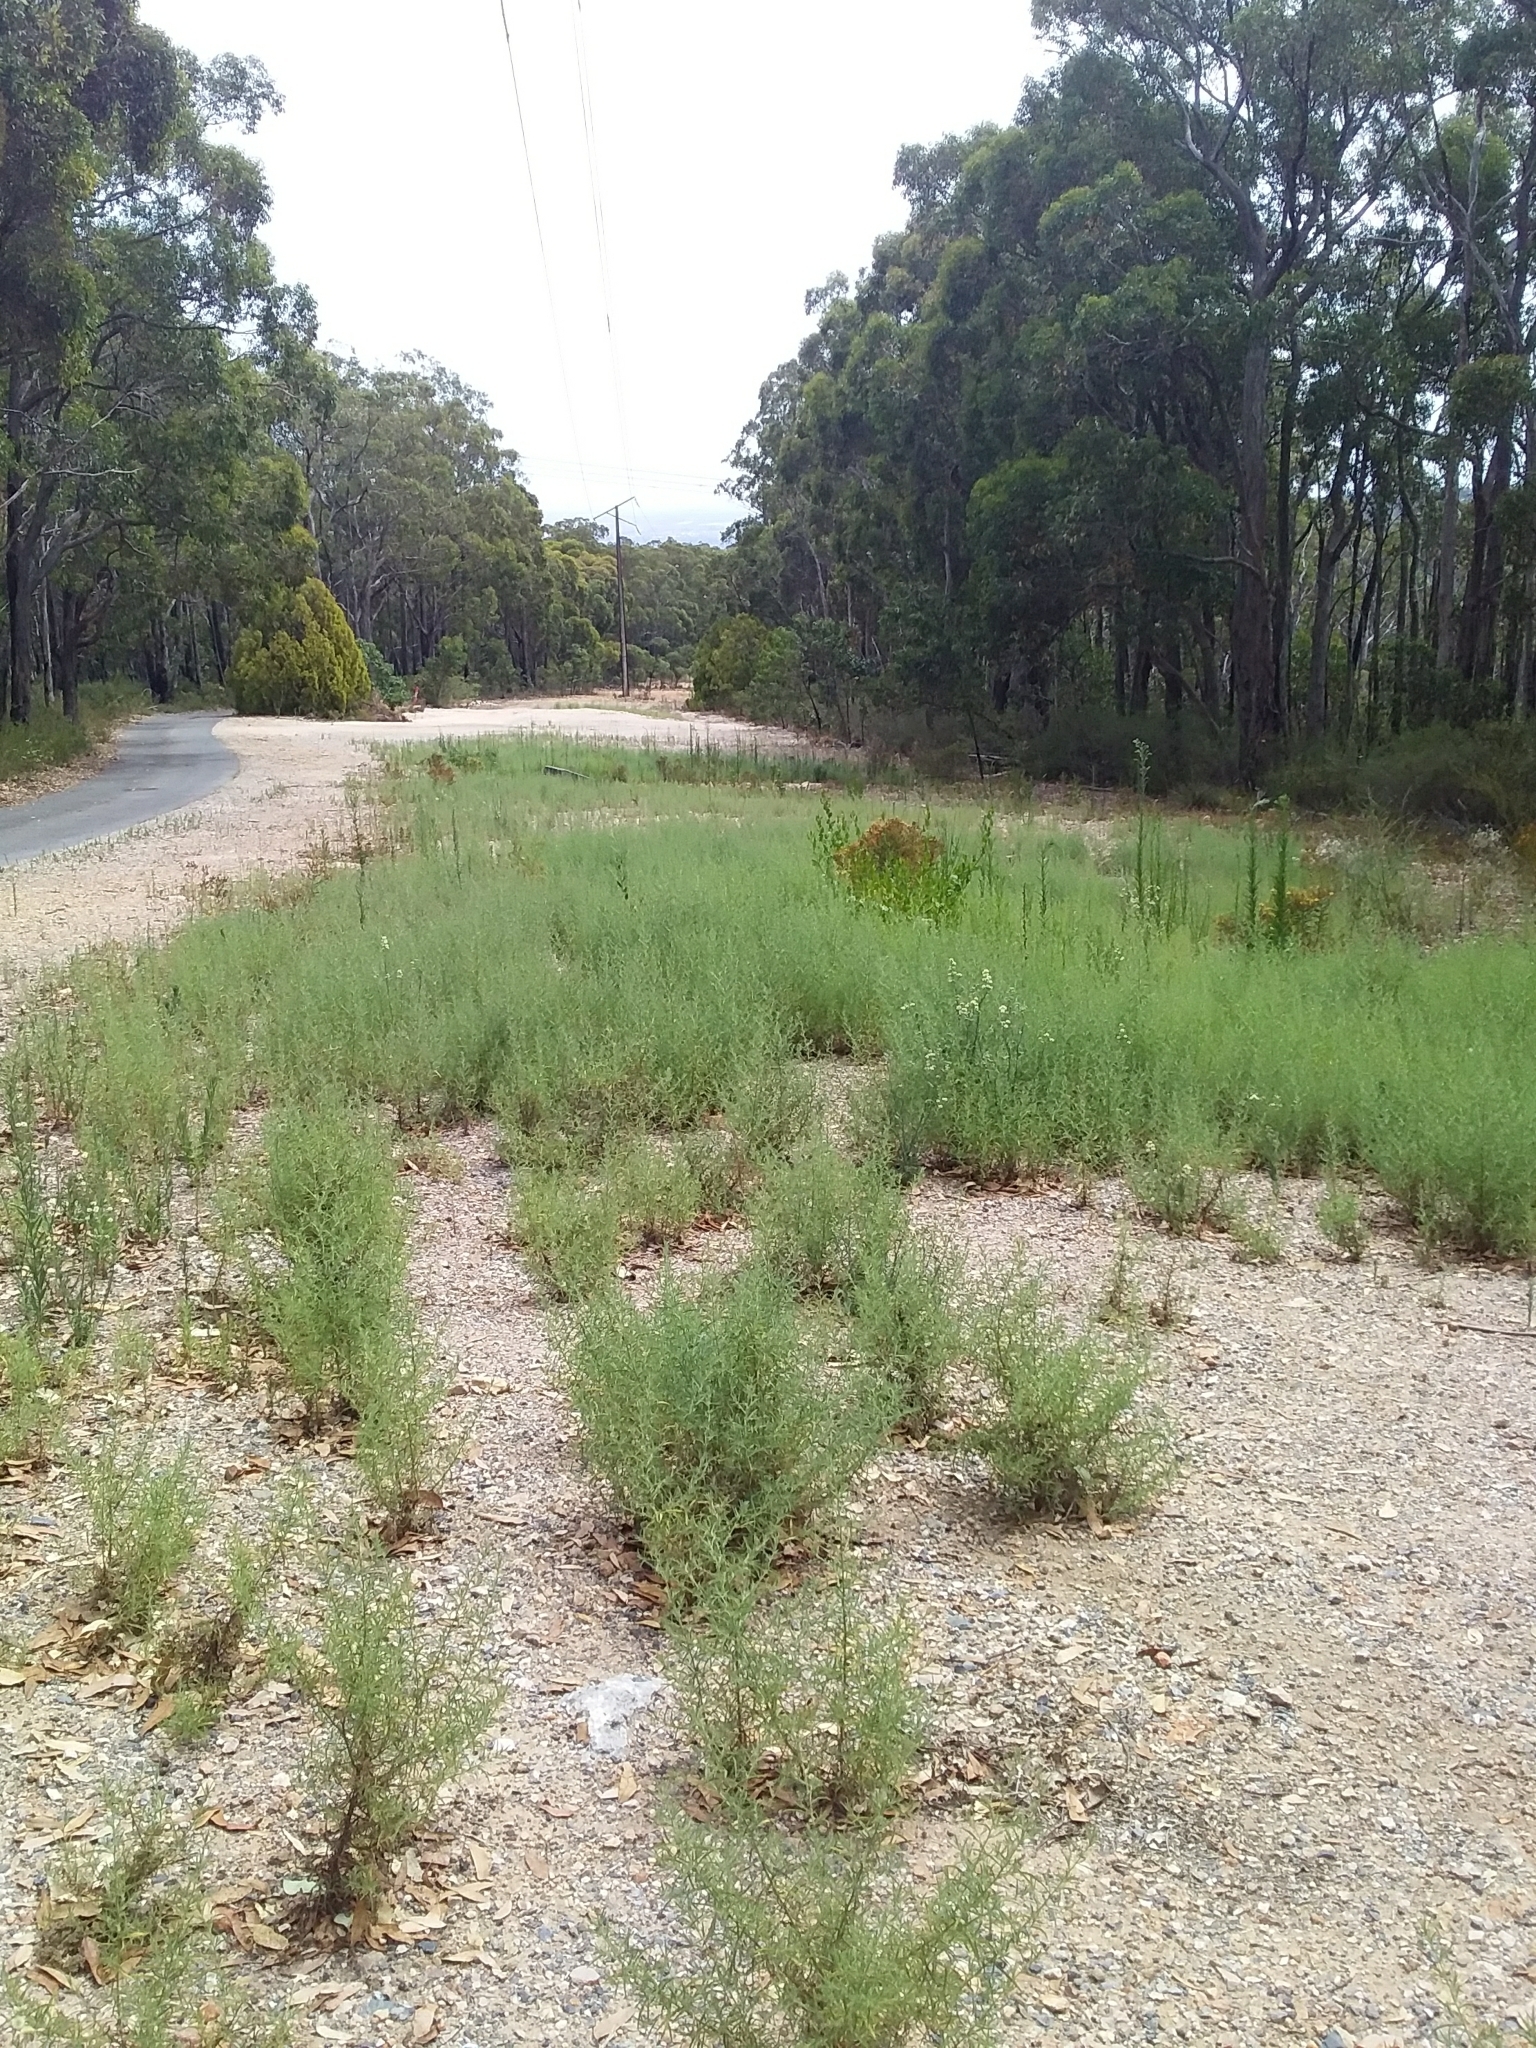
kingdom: Plantae
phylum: Tracheophyta
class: Magnoliopsida
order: Asterales
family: Asteraceae
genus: Dittrichia
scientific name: Dittrichia graveolens
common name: Stinking fleabane
